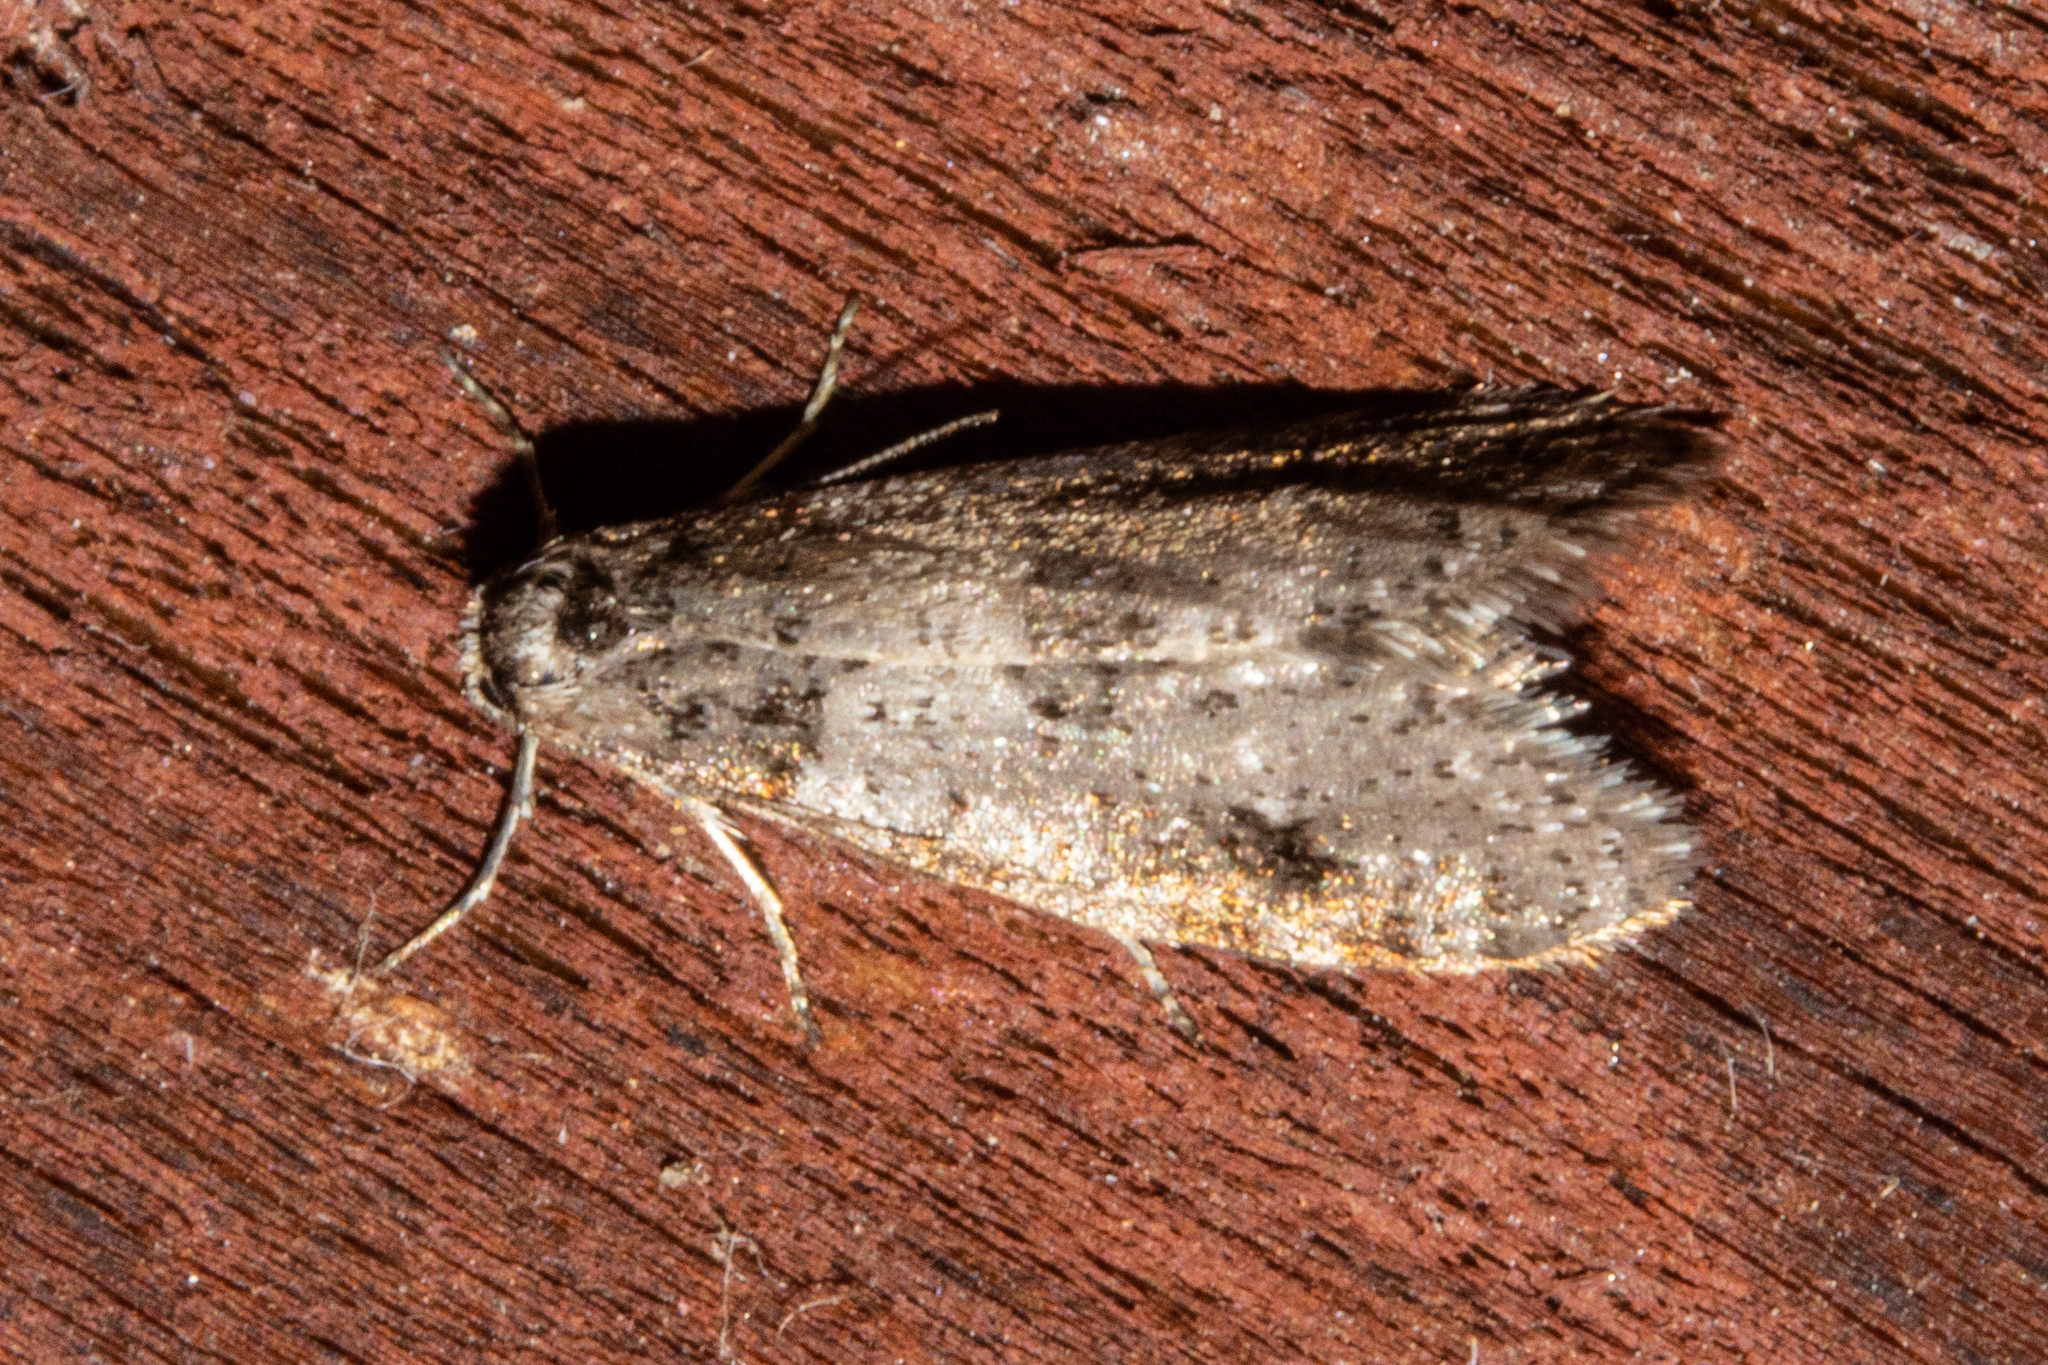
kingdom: Animalia
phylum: Arthropoda
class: Insecta
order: Lepidoptera
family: Psychidae
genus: Lepidoscia
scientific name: Lepidoscia heliochares
